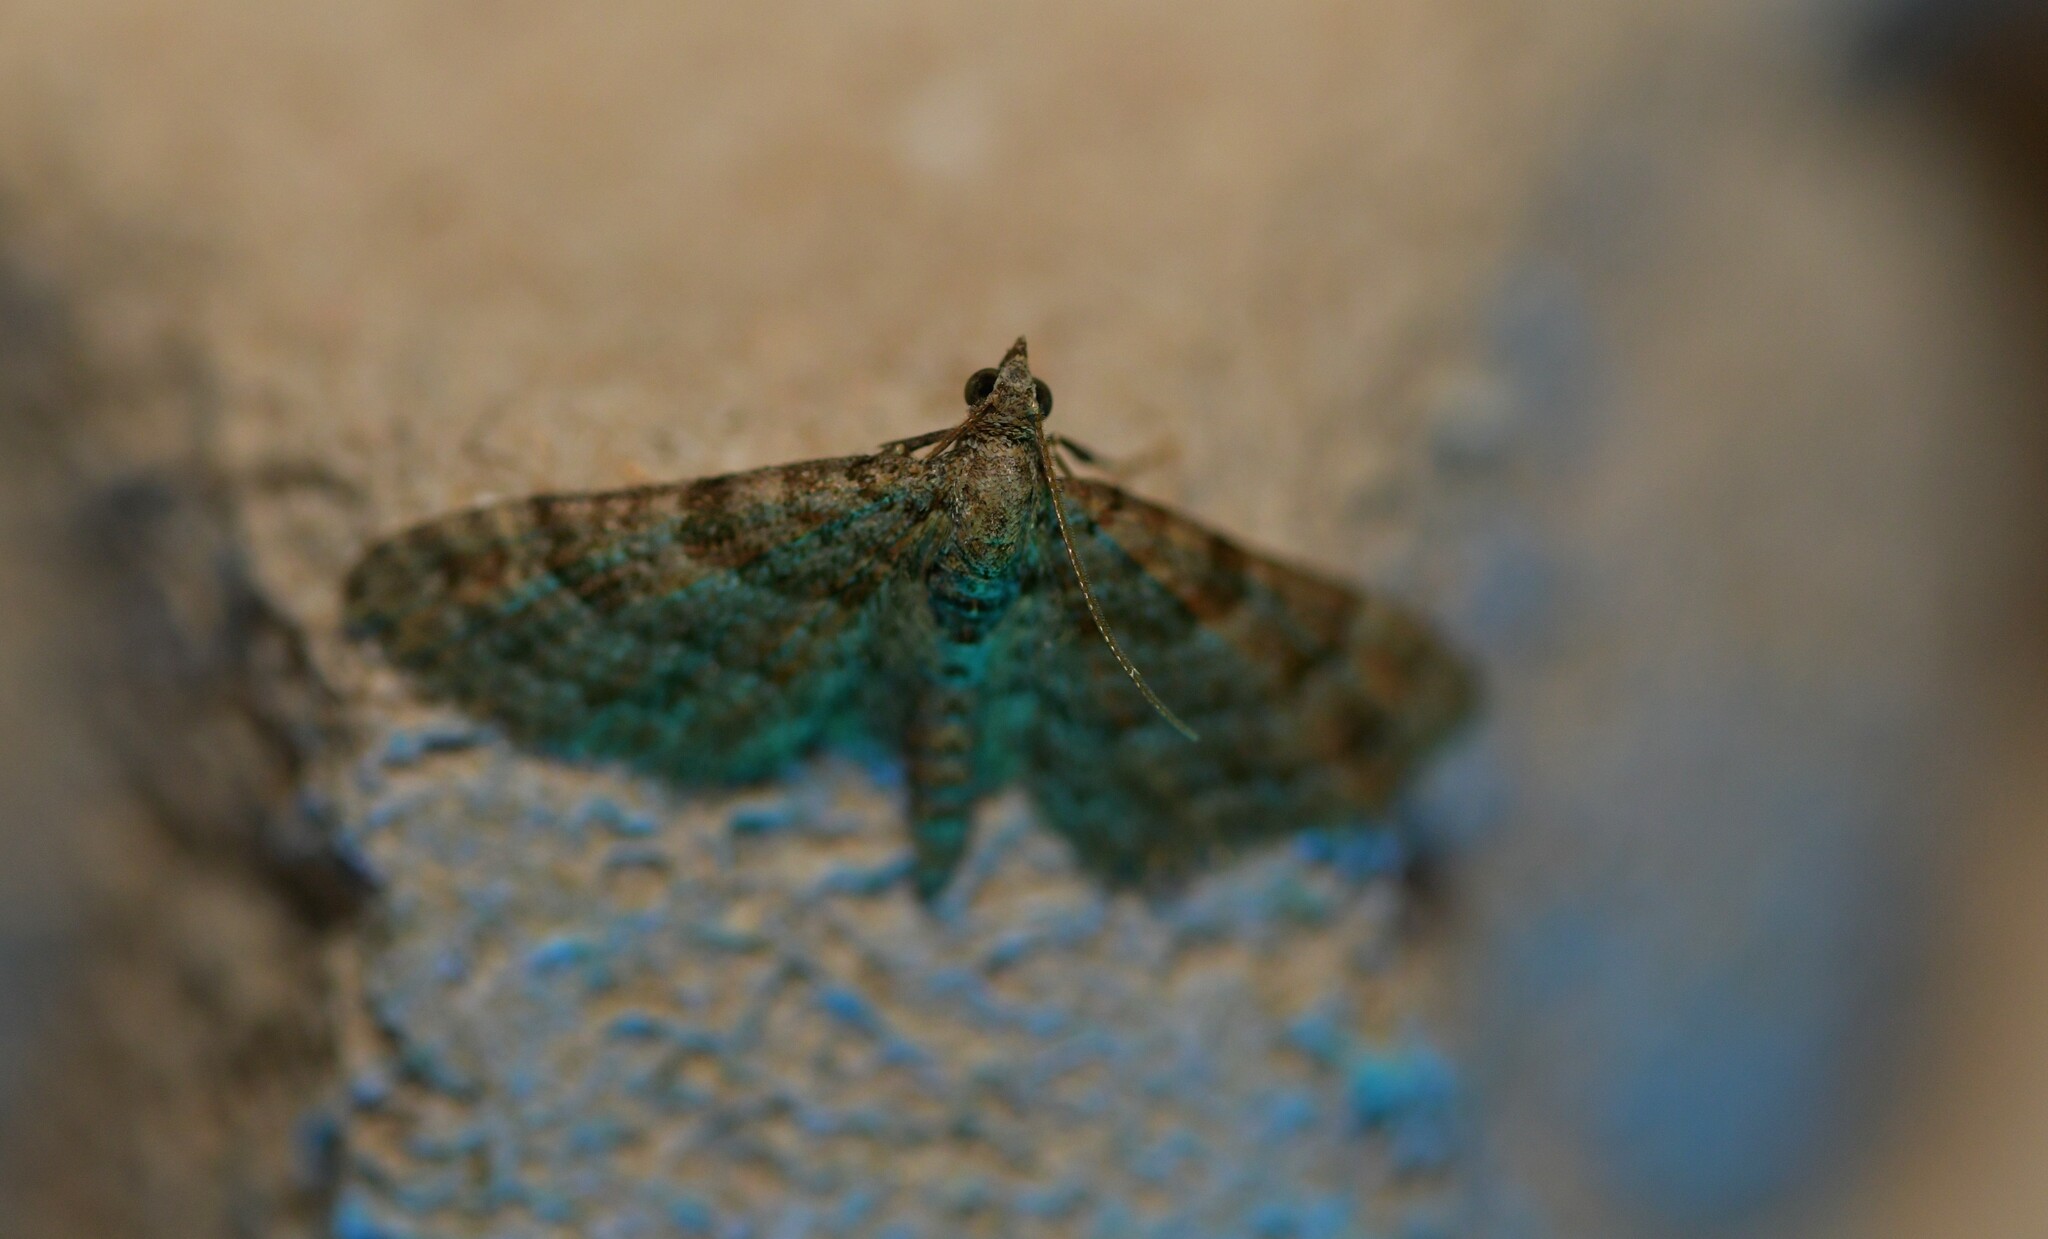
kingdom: Animalia
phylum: Arthropoda
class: Insecta
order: Lepidoptera
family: Geometridae
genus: Gymnoscelis
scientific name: Gymnoscelis rufifasciata
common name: Double-striped pug
